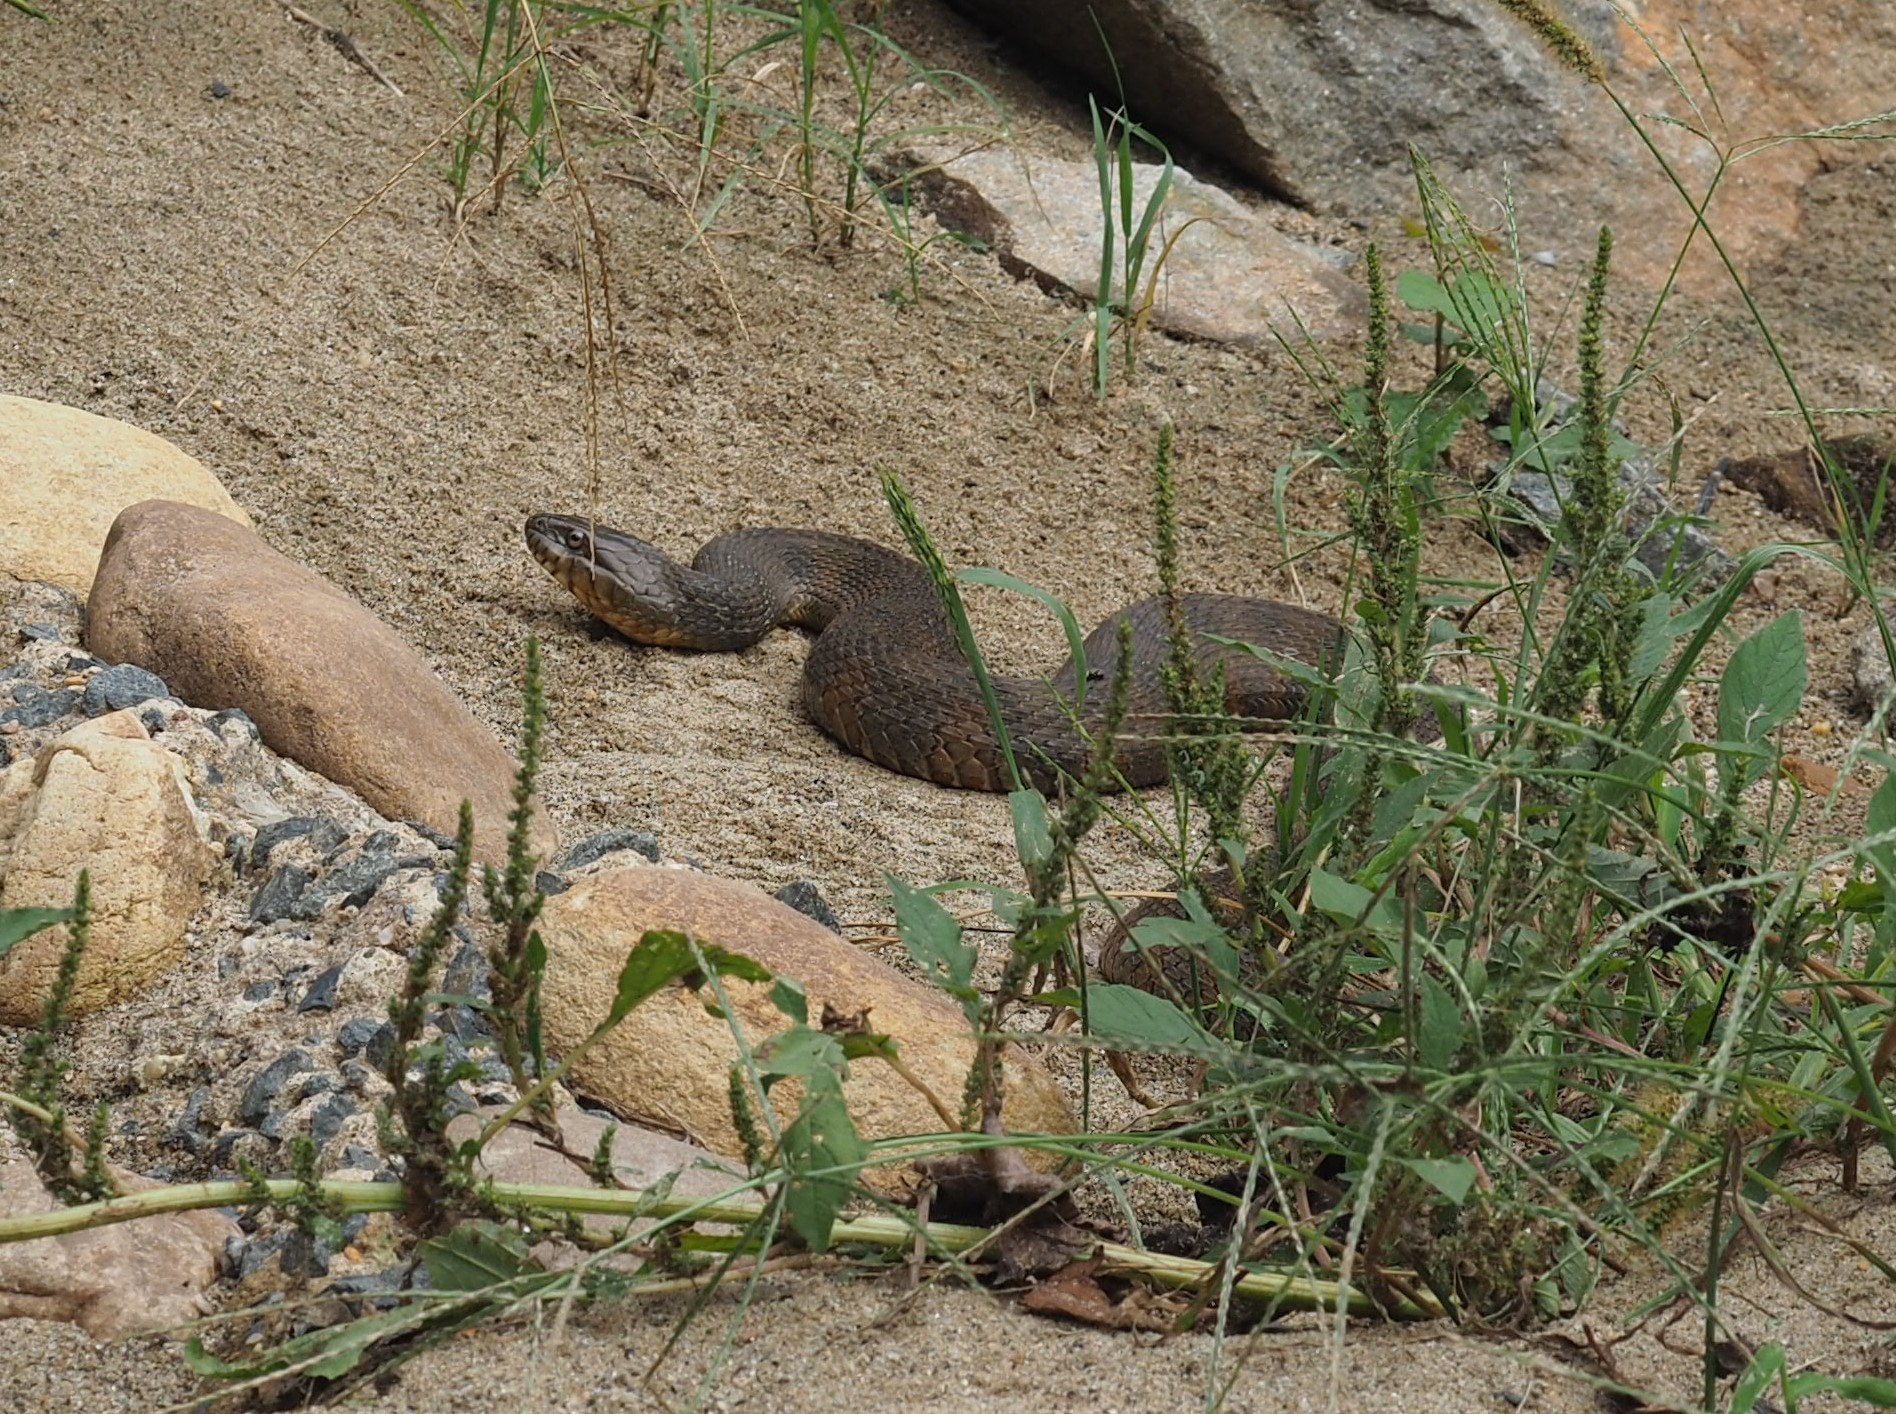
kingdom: Animalia
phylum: Chordata
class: Squamata
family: Colubridae
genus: Nerodia
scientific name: Nerodia sipedon
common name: Northern water snake
